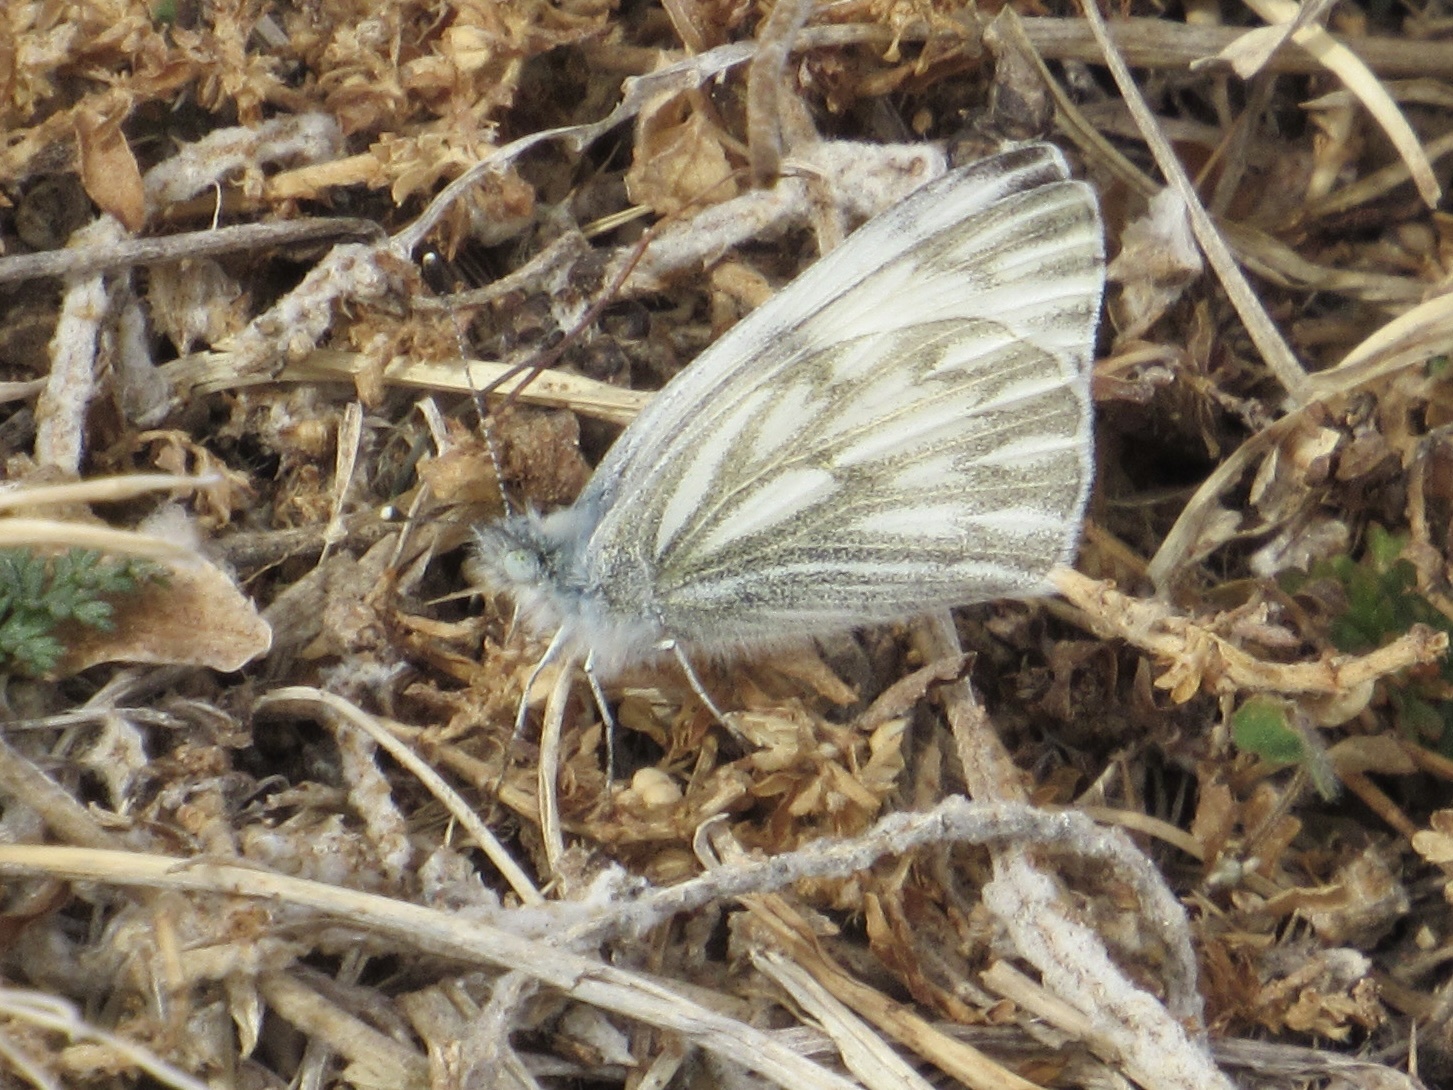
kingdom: Animalia
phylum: Arthropoda
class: Insecta
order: Lepidoptera
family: Pieridae
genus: Pontia
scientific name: Pontia protodice
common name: Checkered white
